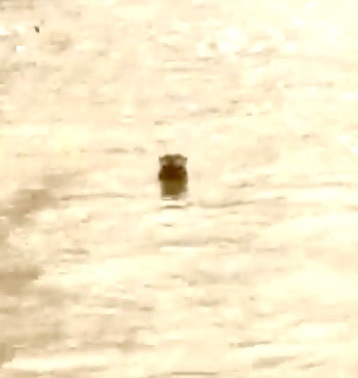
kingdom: Animalia
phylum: Chordata
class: Mammalia
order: Carnivora
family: Mustelidae
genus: Lontra
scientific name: Lontra canadensis
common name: North american river otter
